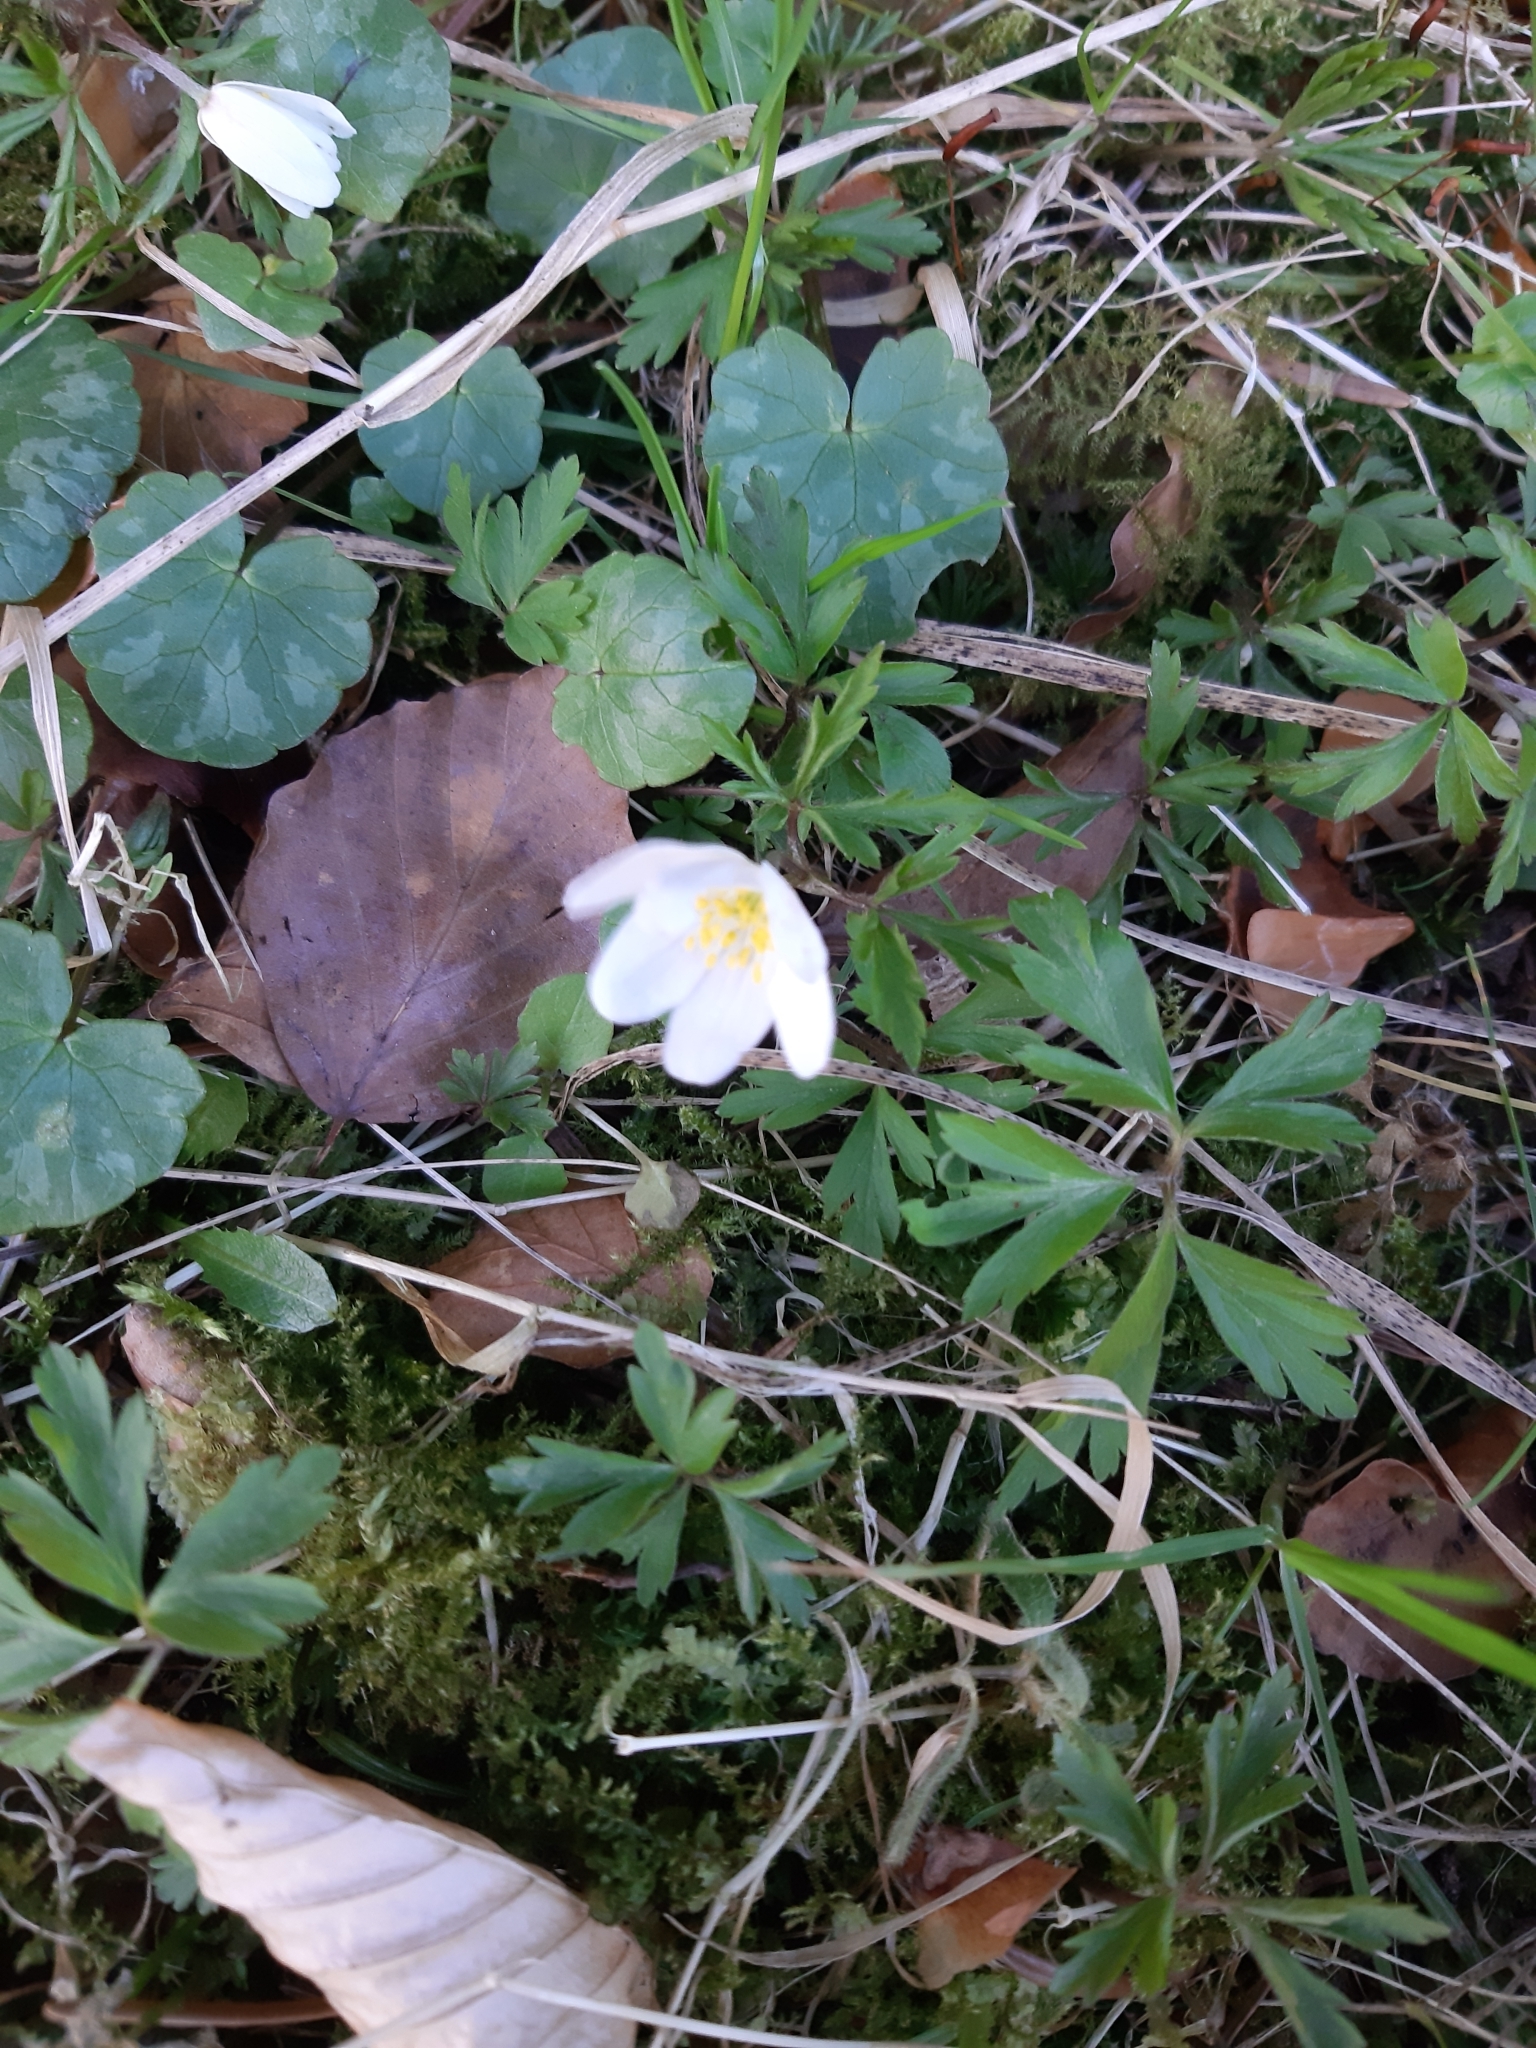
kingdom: Plantae
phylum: Tracheophyta
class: Magnoliopsida
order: Ranunculales
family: Ranunculaceae
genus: Anemone
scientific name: Anemone nemorosa
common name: Wood anemone
